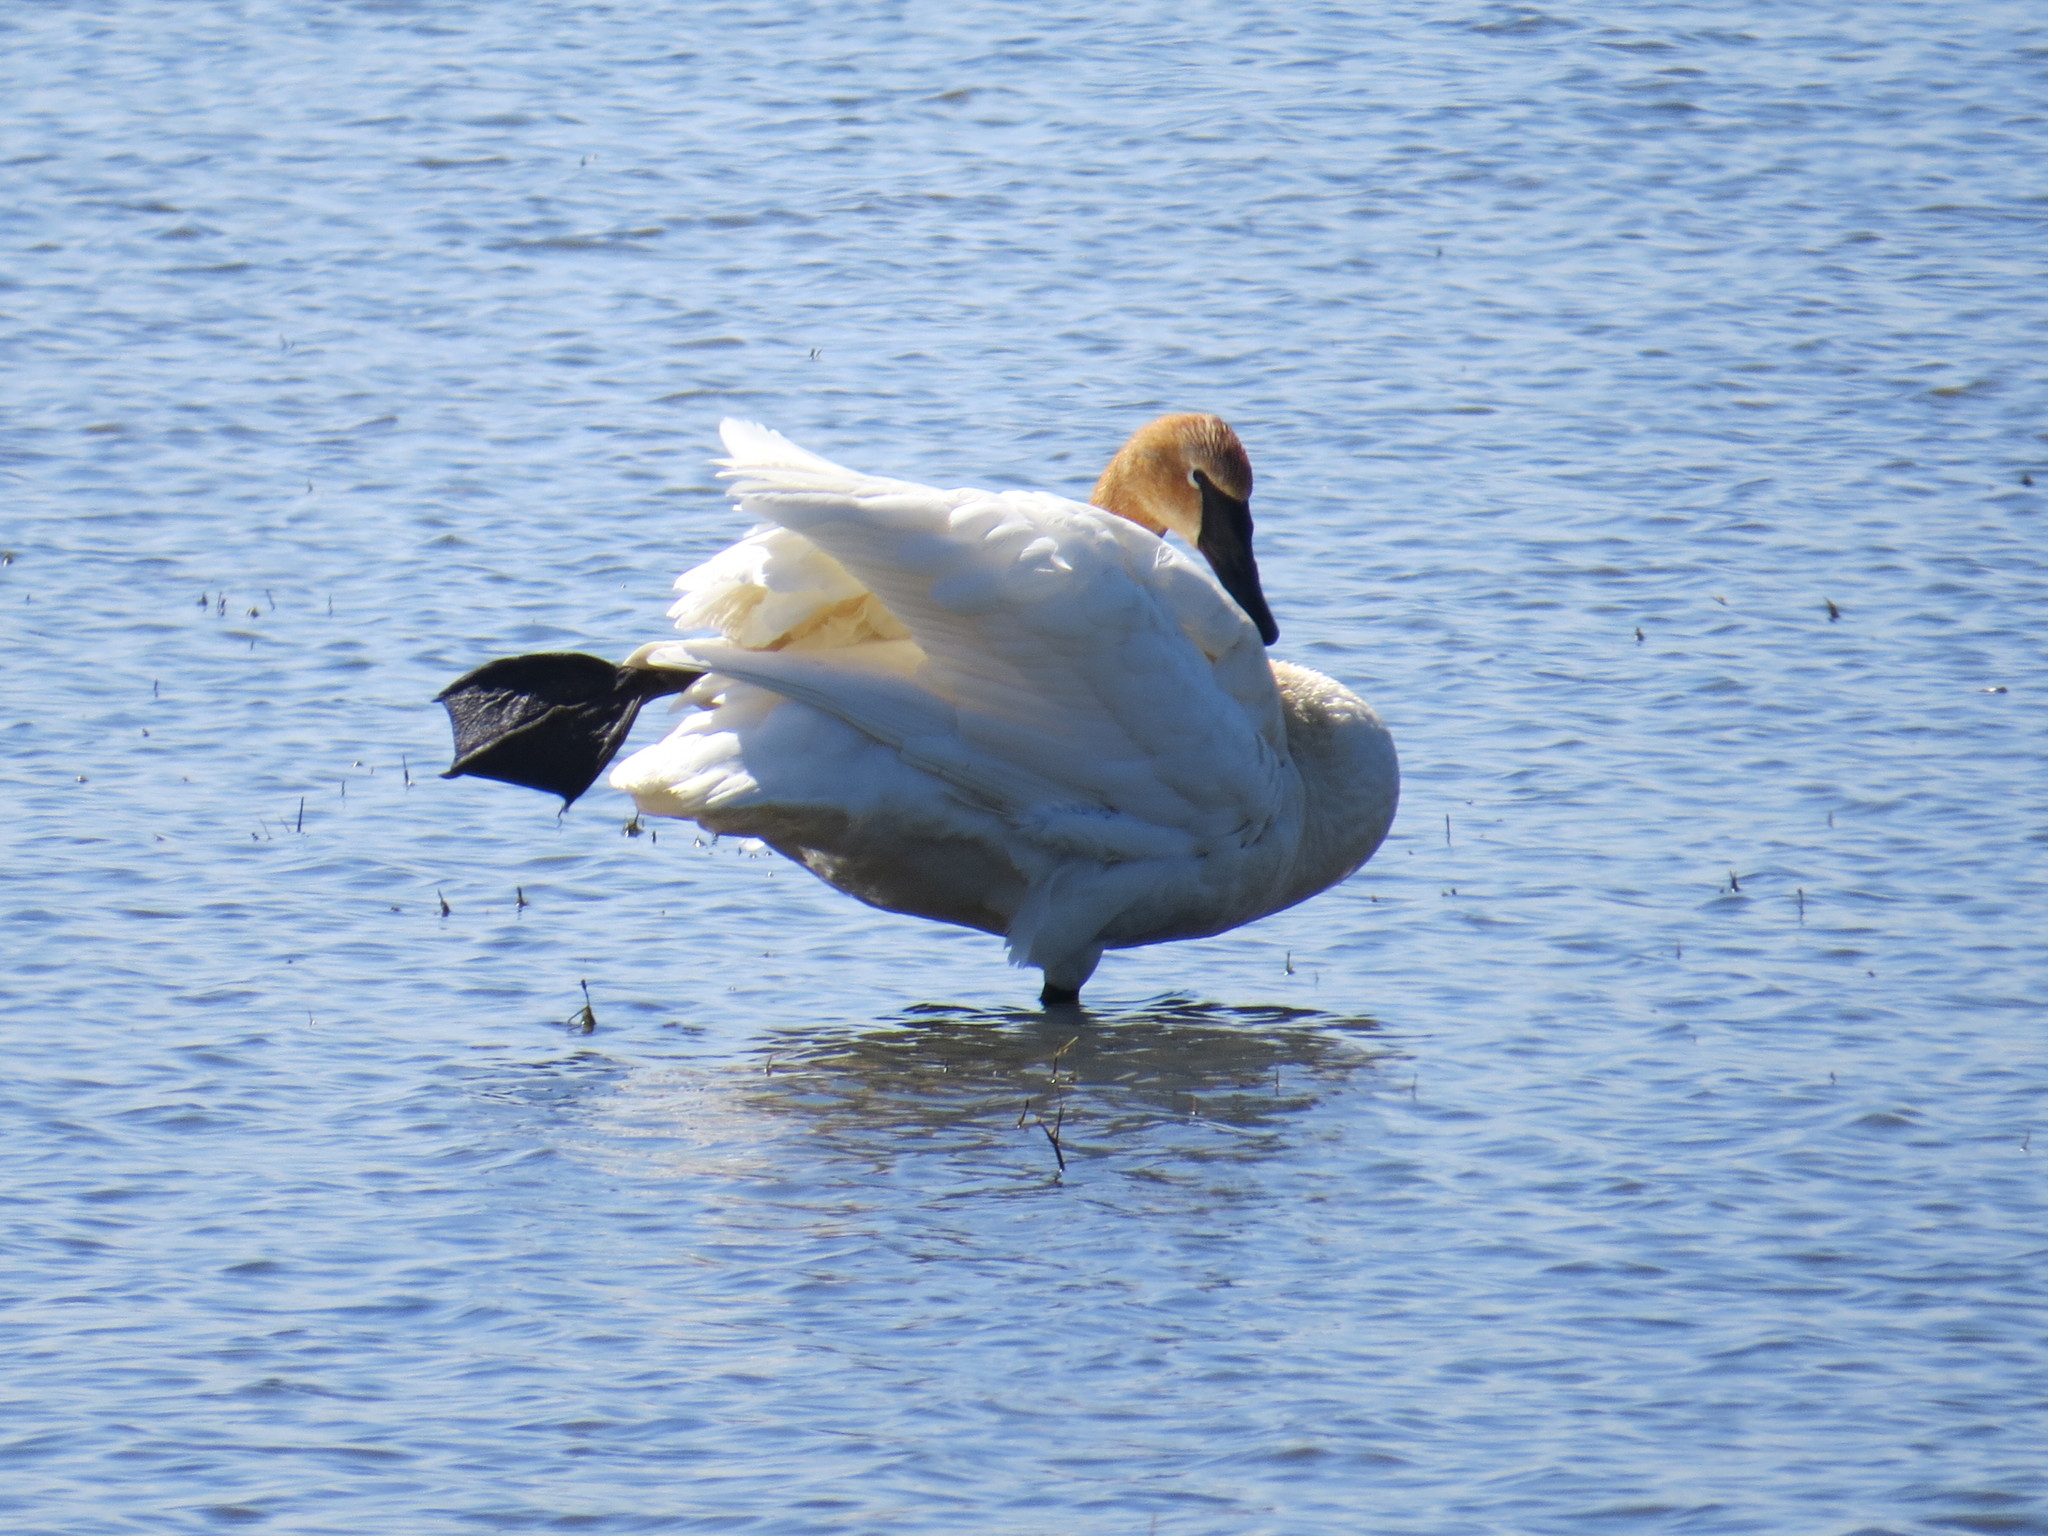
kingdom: Animalia
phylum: Chordata
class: Aves
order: Anseriformes
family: Anatidae
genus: Cygnus
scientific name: Cygnus buccinator
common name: Trumpeter swan
